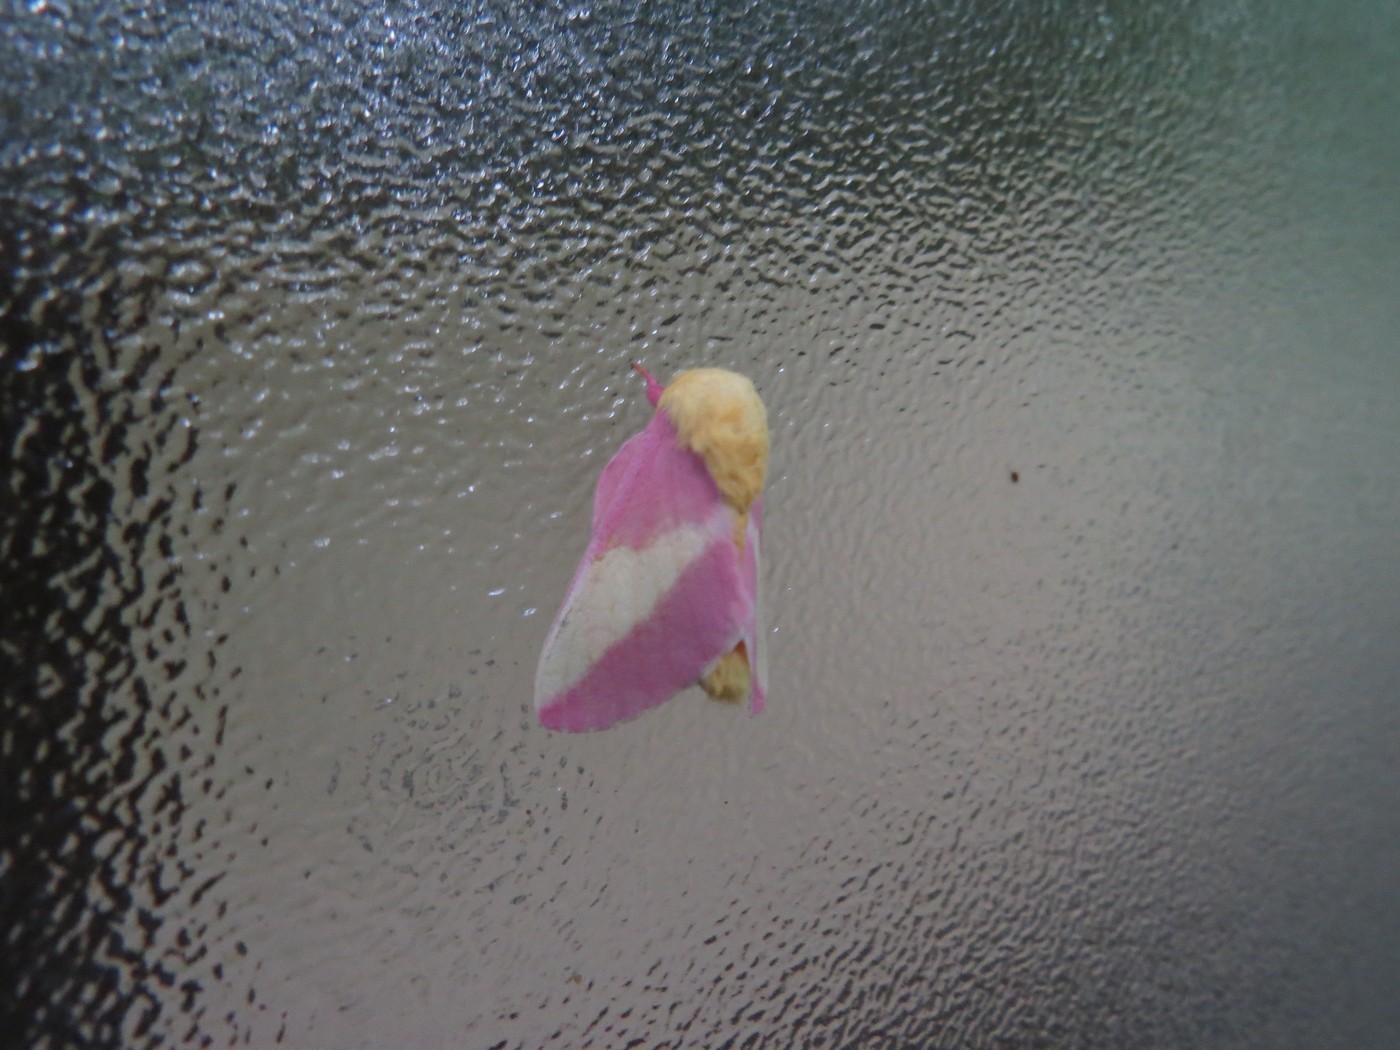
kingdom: Animalia
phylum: Arthropoda
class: Insecta
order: Lepidoptera
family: Saturniidae
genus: Dryocampa
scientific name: Dryocampa rubicunda
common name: Rosy maple moth
